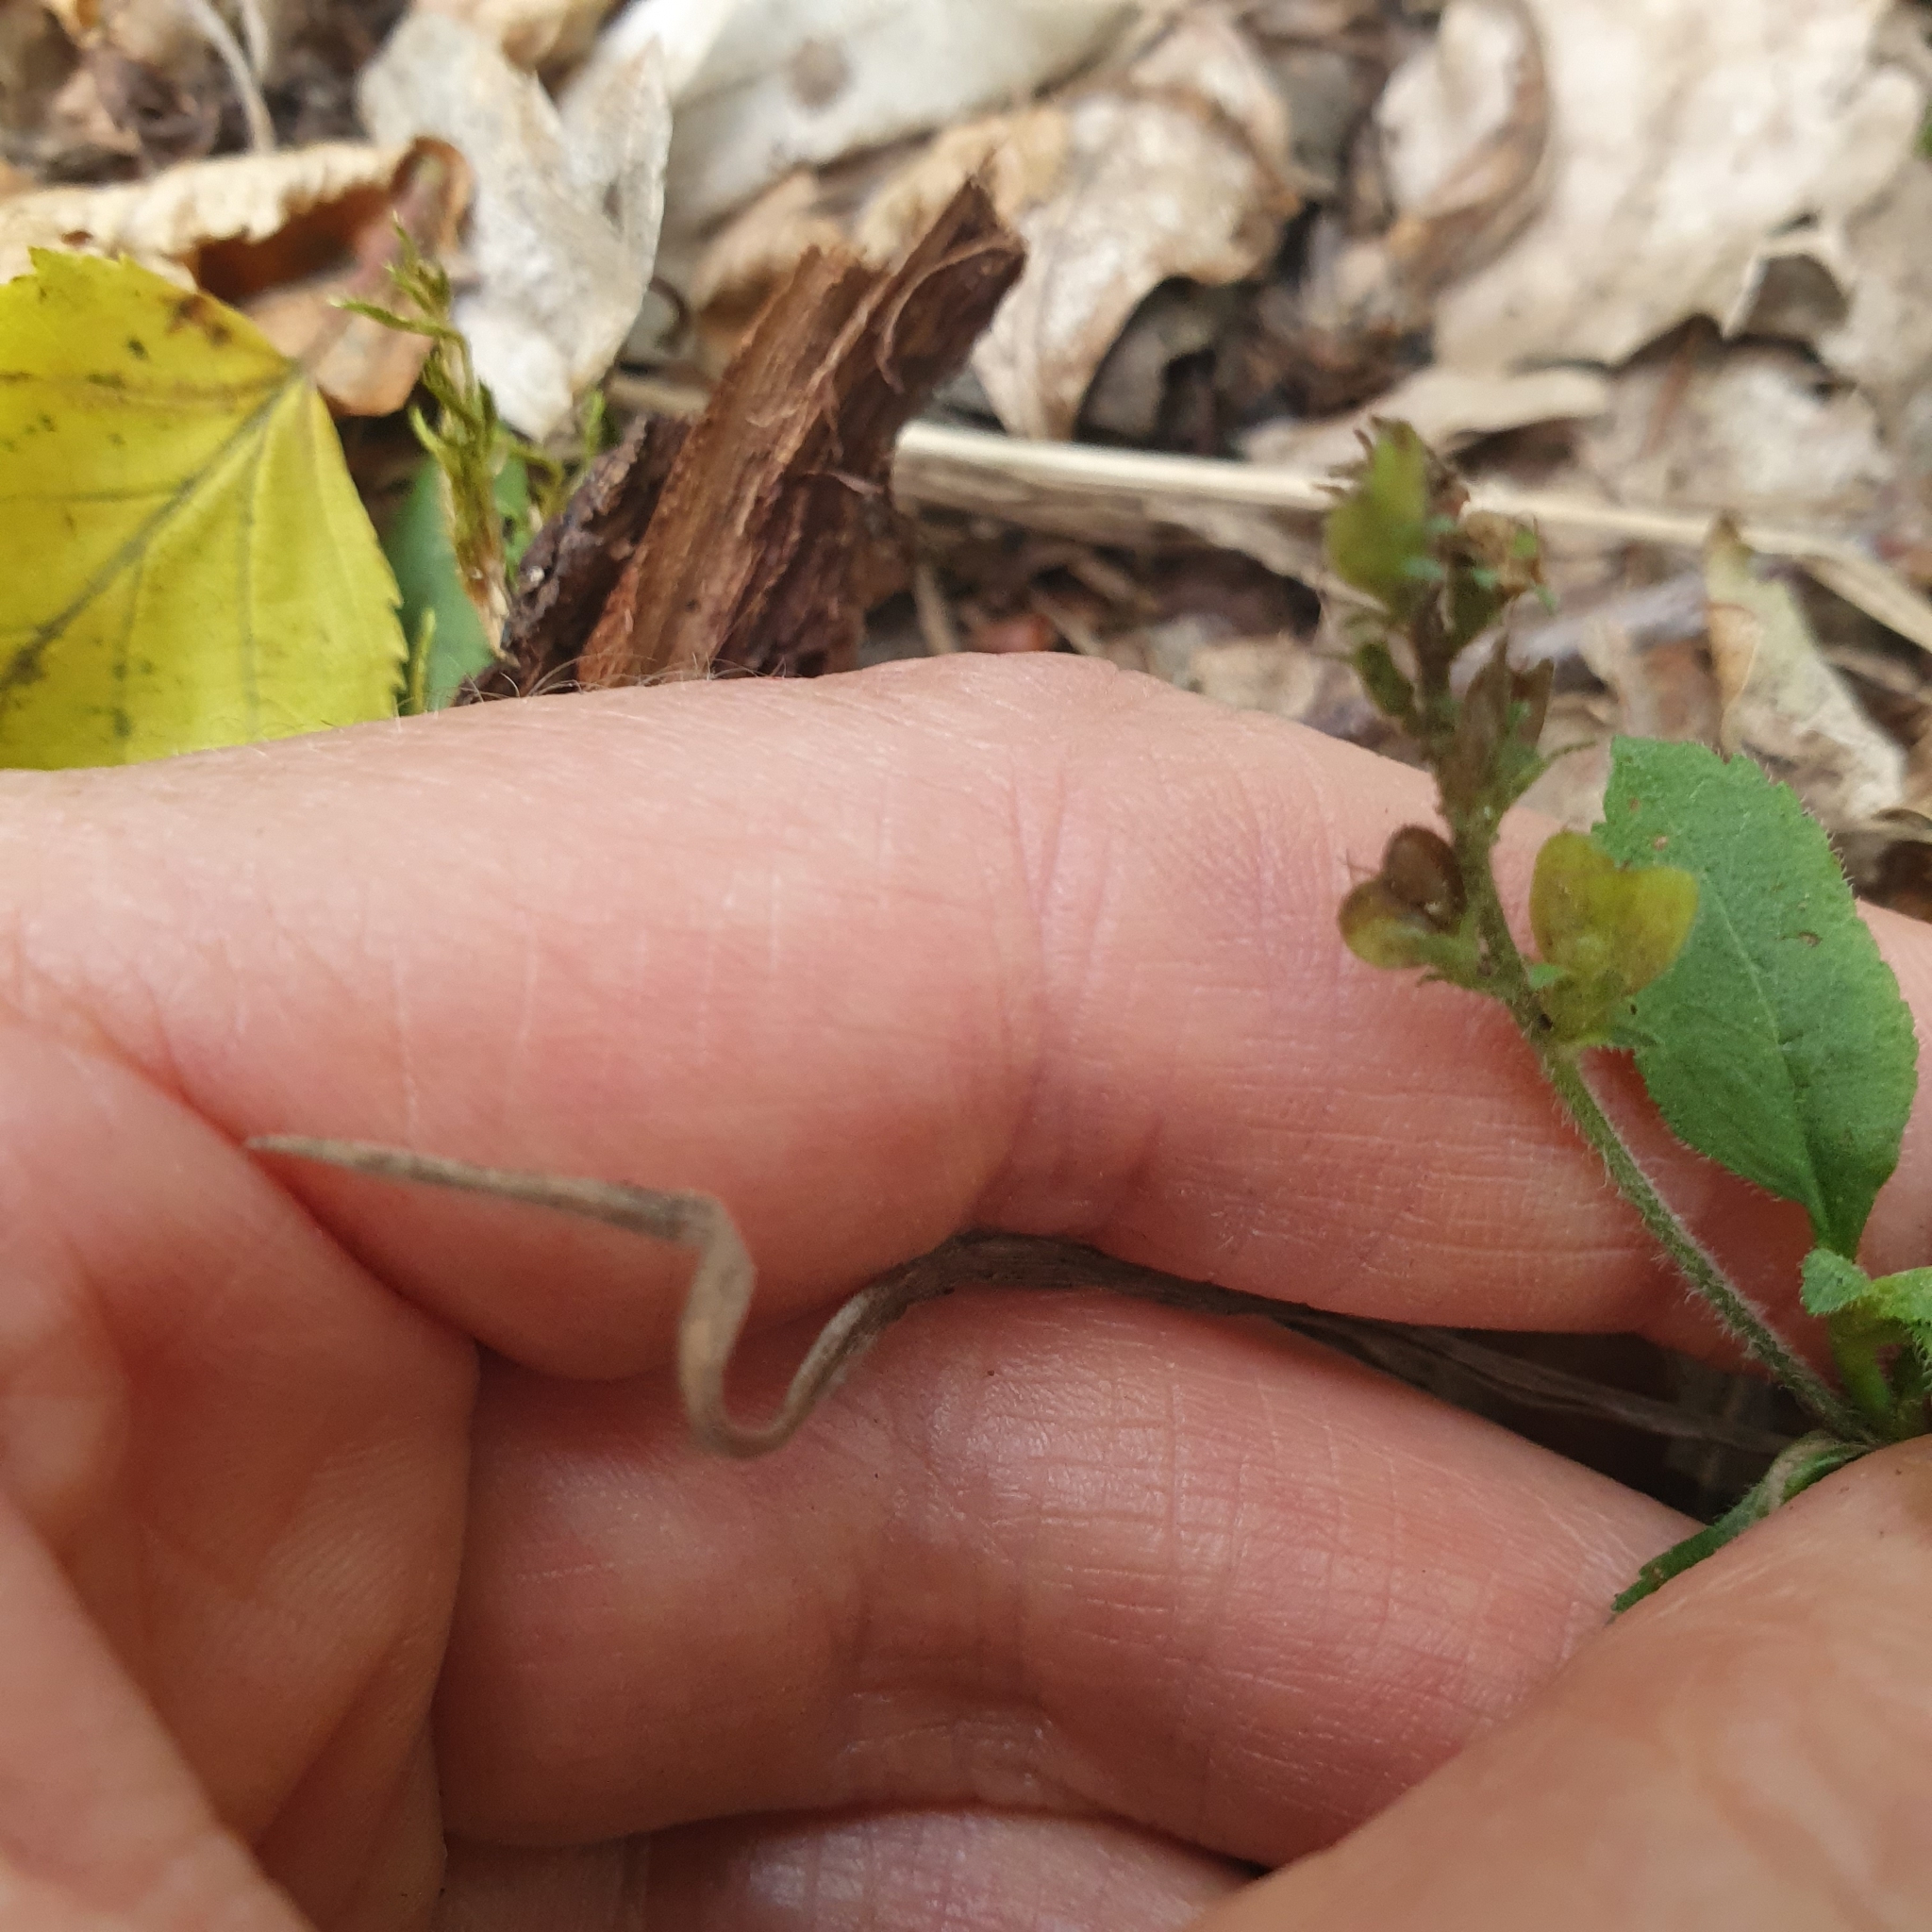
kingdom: Plantae
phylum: Tracheophyta
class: Magnoliopsida
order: Lamiales
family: Plantaginaceae
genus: Veronica
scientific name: Veronica officinalis
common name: Common speedwell
